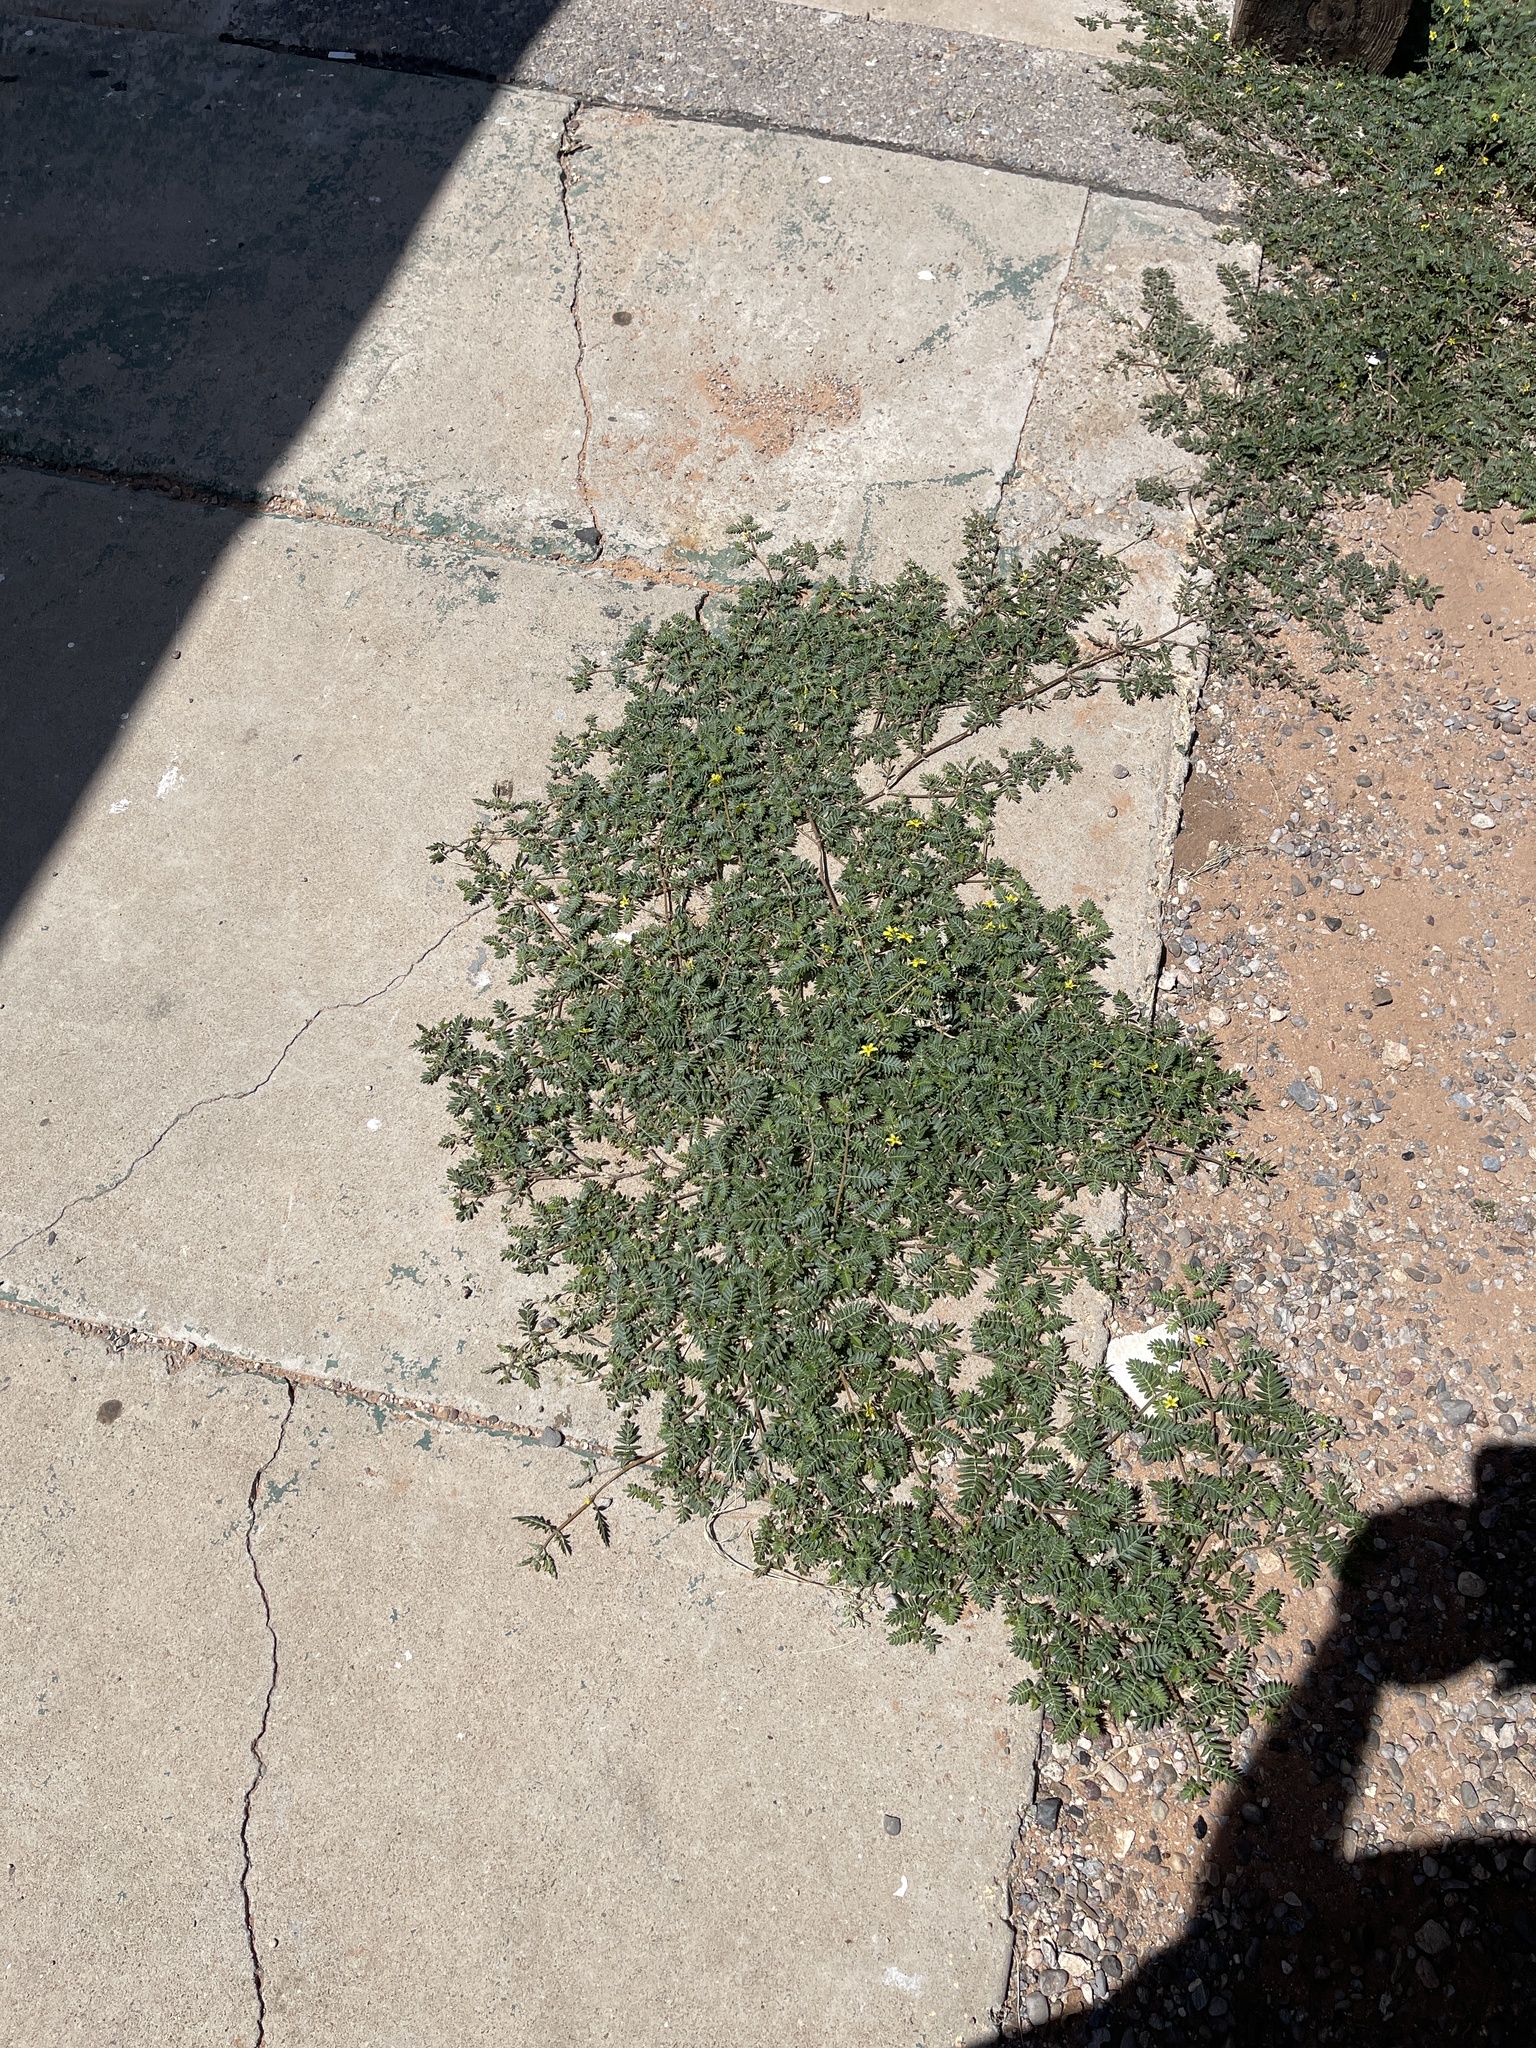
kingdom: Plantae
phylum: Tracheophyta
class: Magnoliopsida
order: Zygophyllales
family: Zygophyllaceae
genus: Tribulus
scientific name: Tribulus terrestris
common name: Puncturevine
